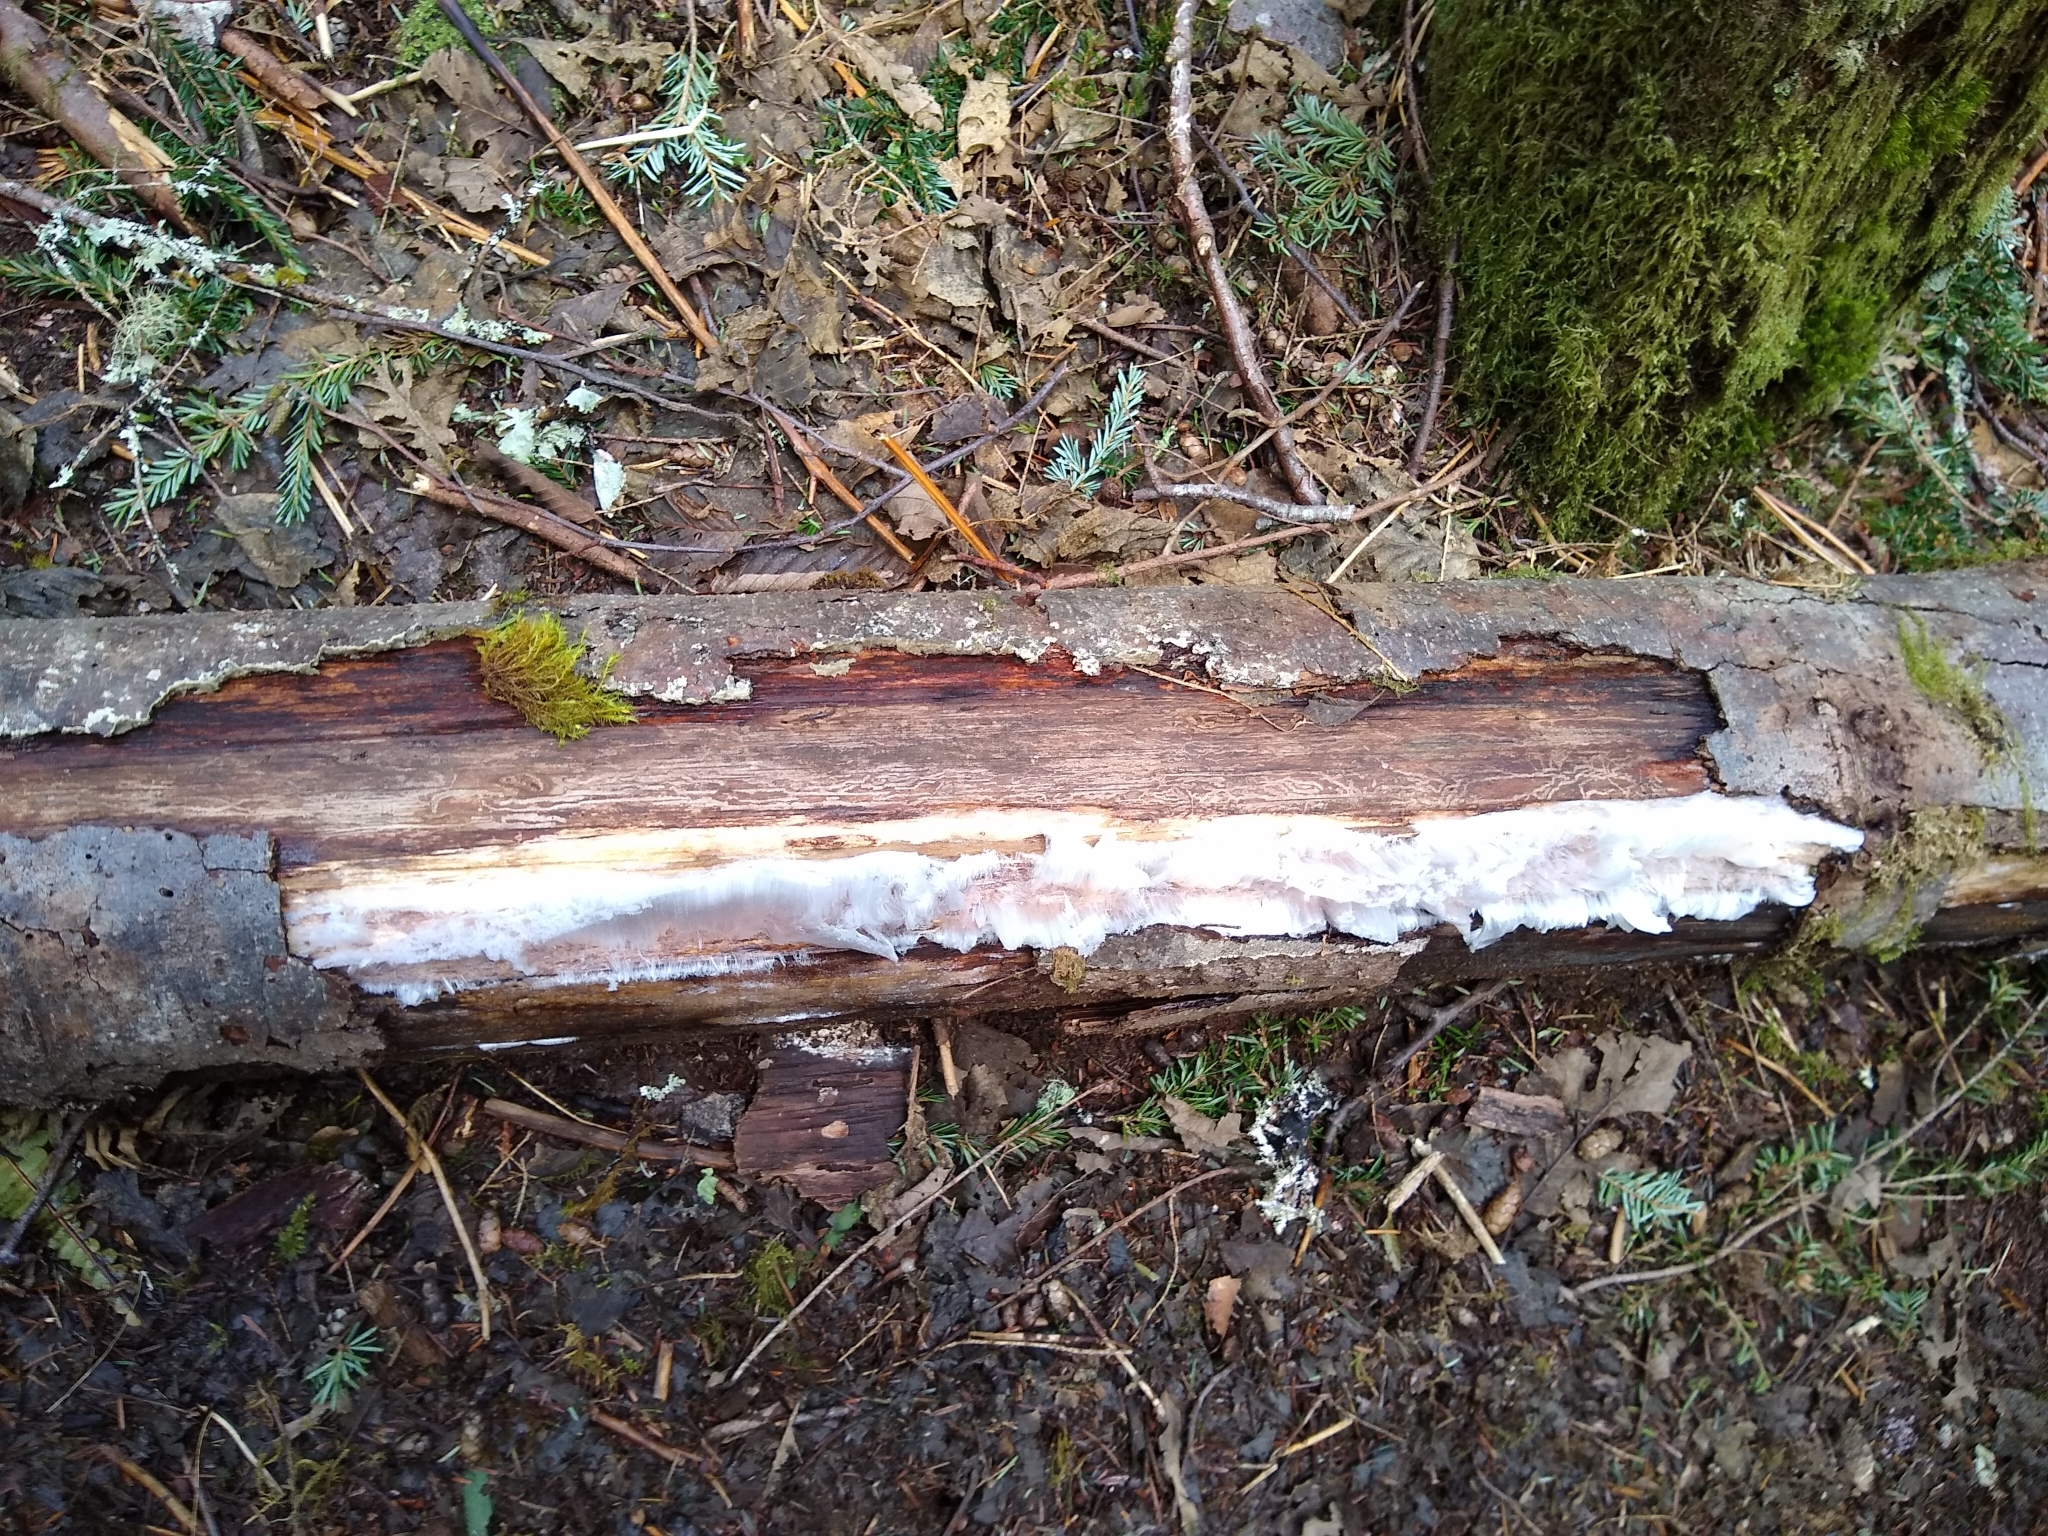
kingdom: Fungi
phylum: Basidiomycota
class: Agaricomycetes
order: Auriculariales
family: Auriculariaceae
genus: Exidiopsis
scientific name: Exidiopsis effusa
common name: Hair ice crust
